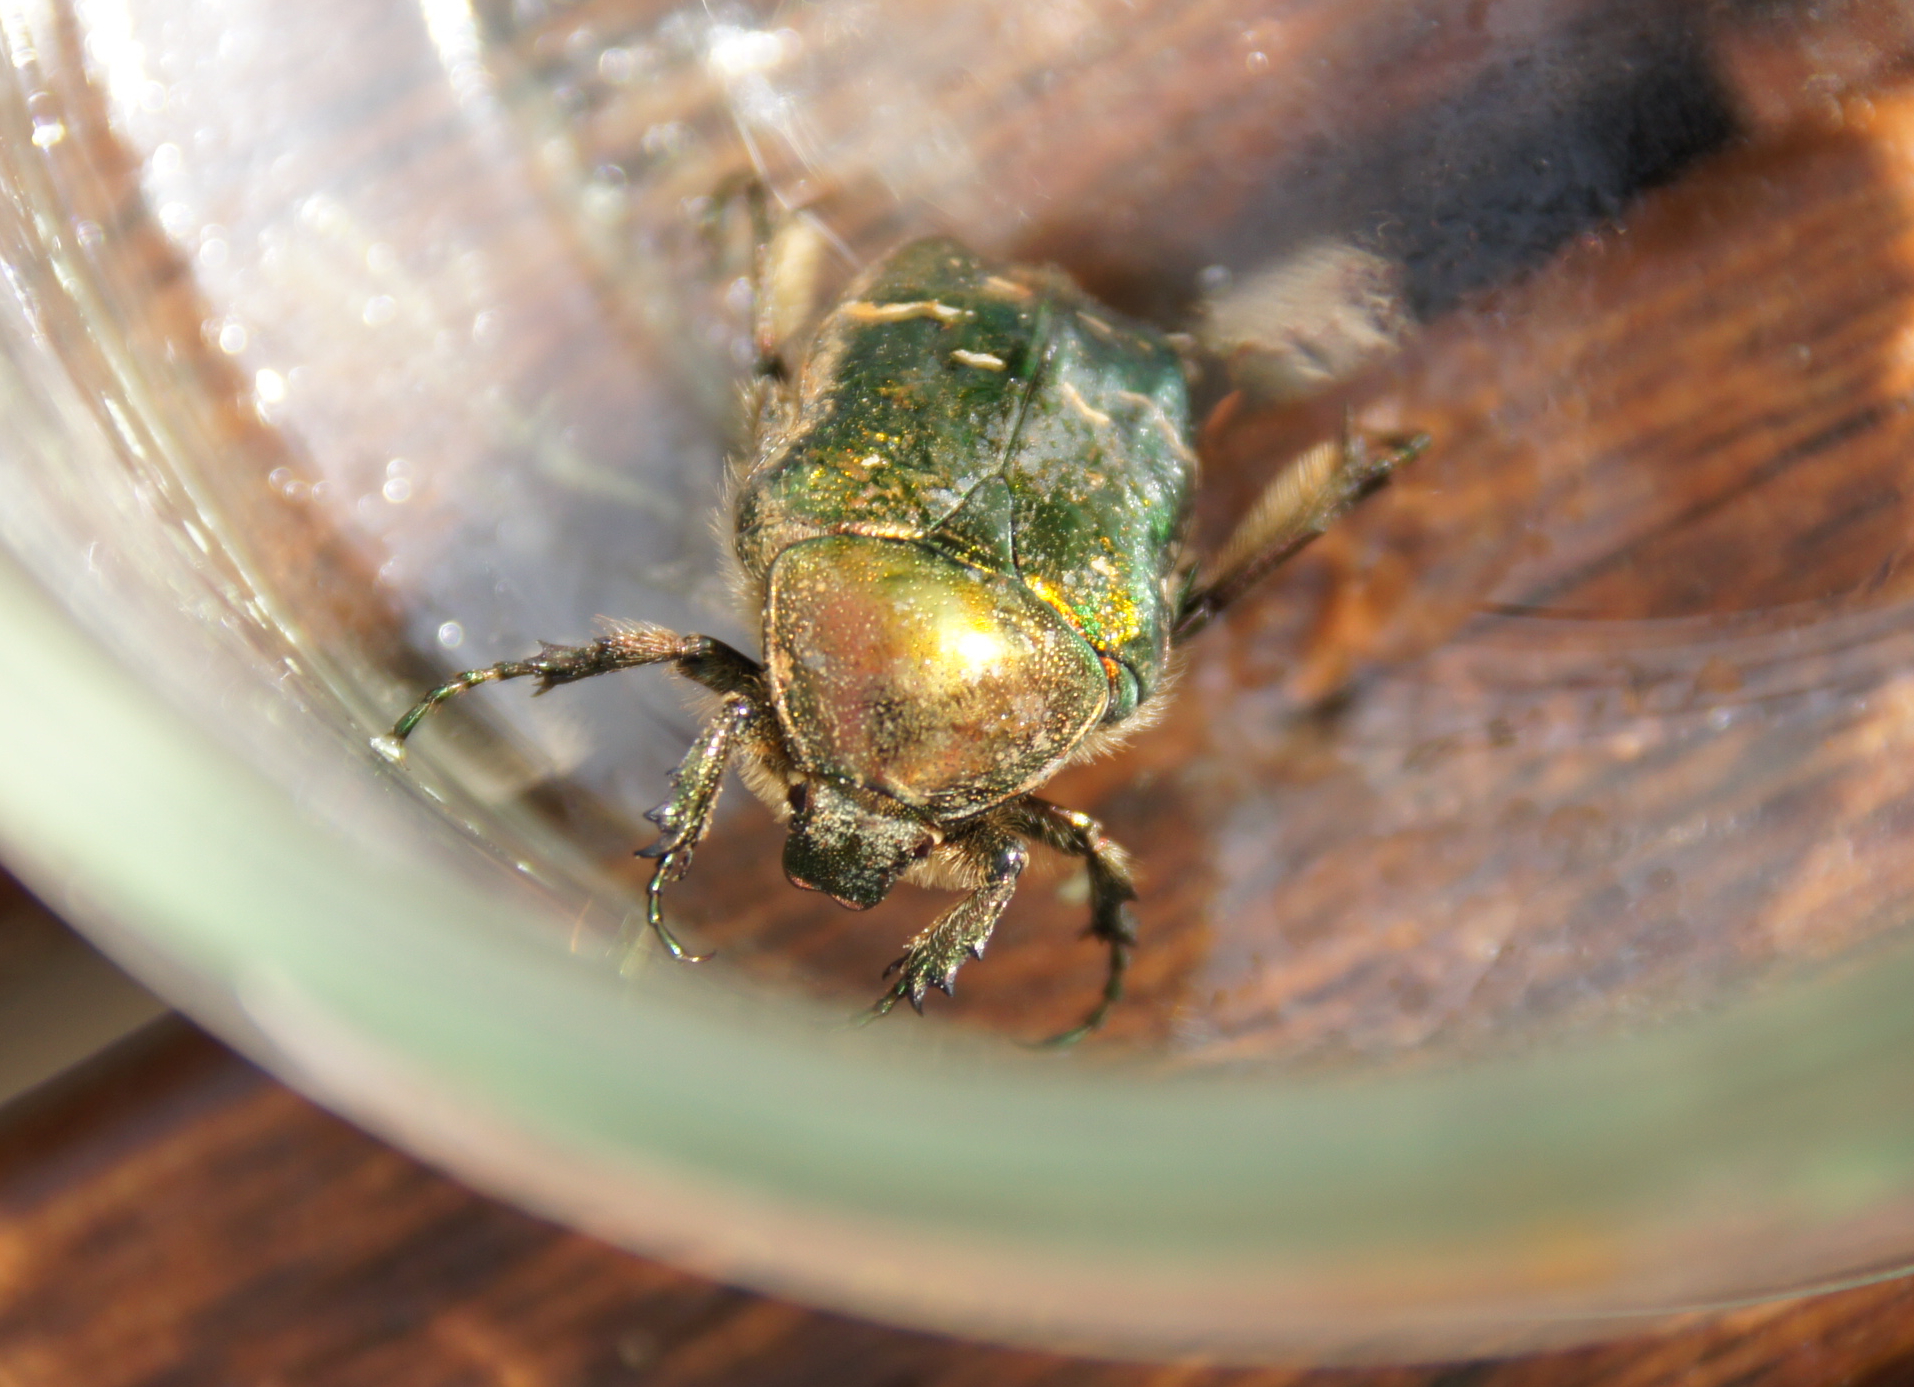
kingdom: Animalia
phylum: Arthropoda
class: Insecta
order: Coleoptera
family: Scarabaeidae
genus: Cetonia
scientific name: Cetonia aurata
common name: Rose chafer
